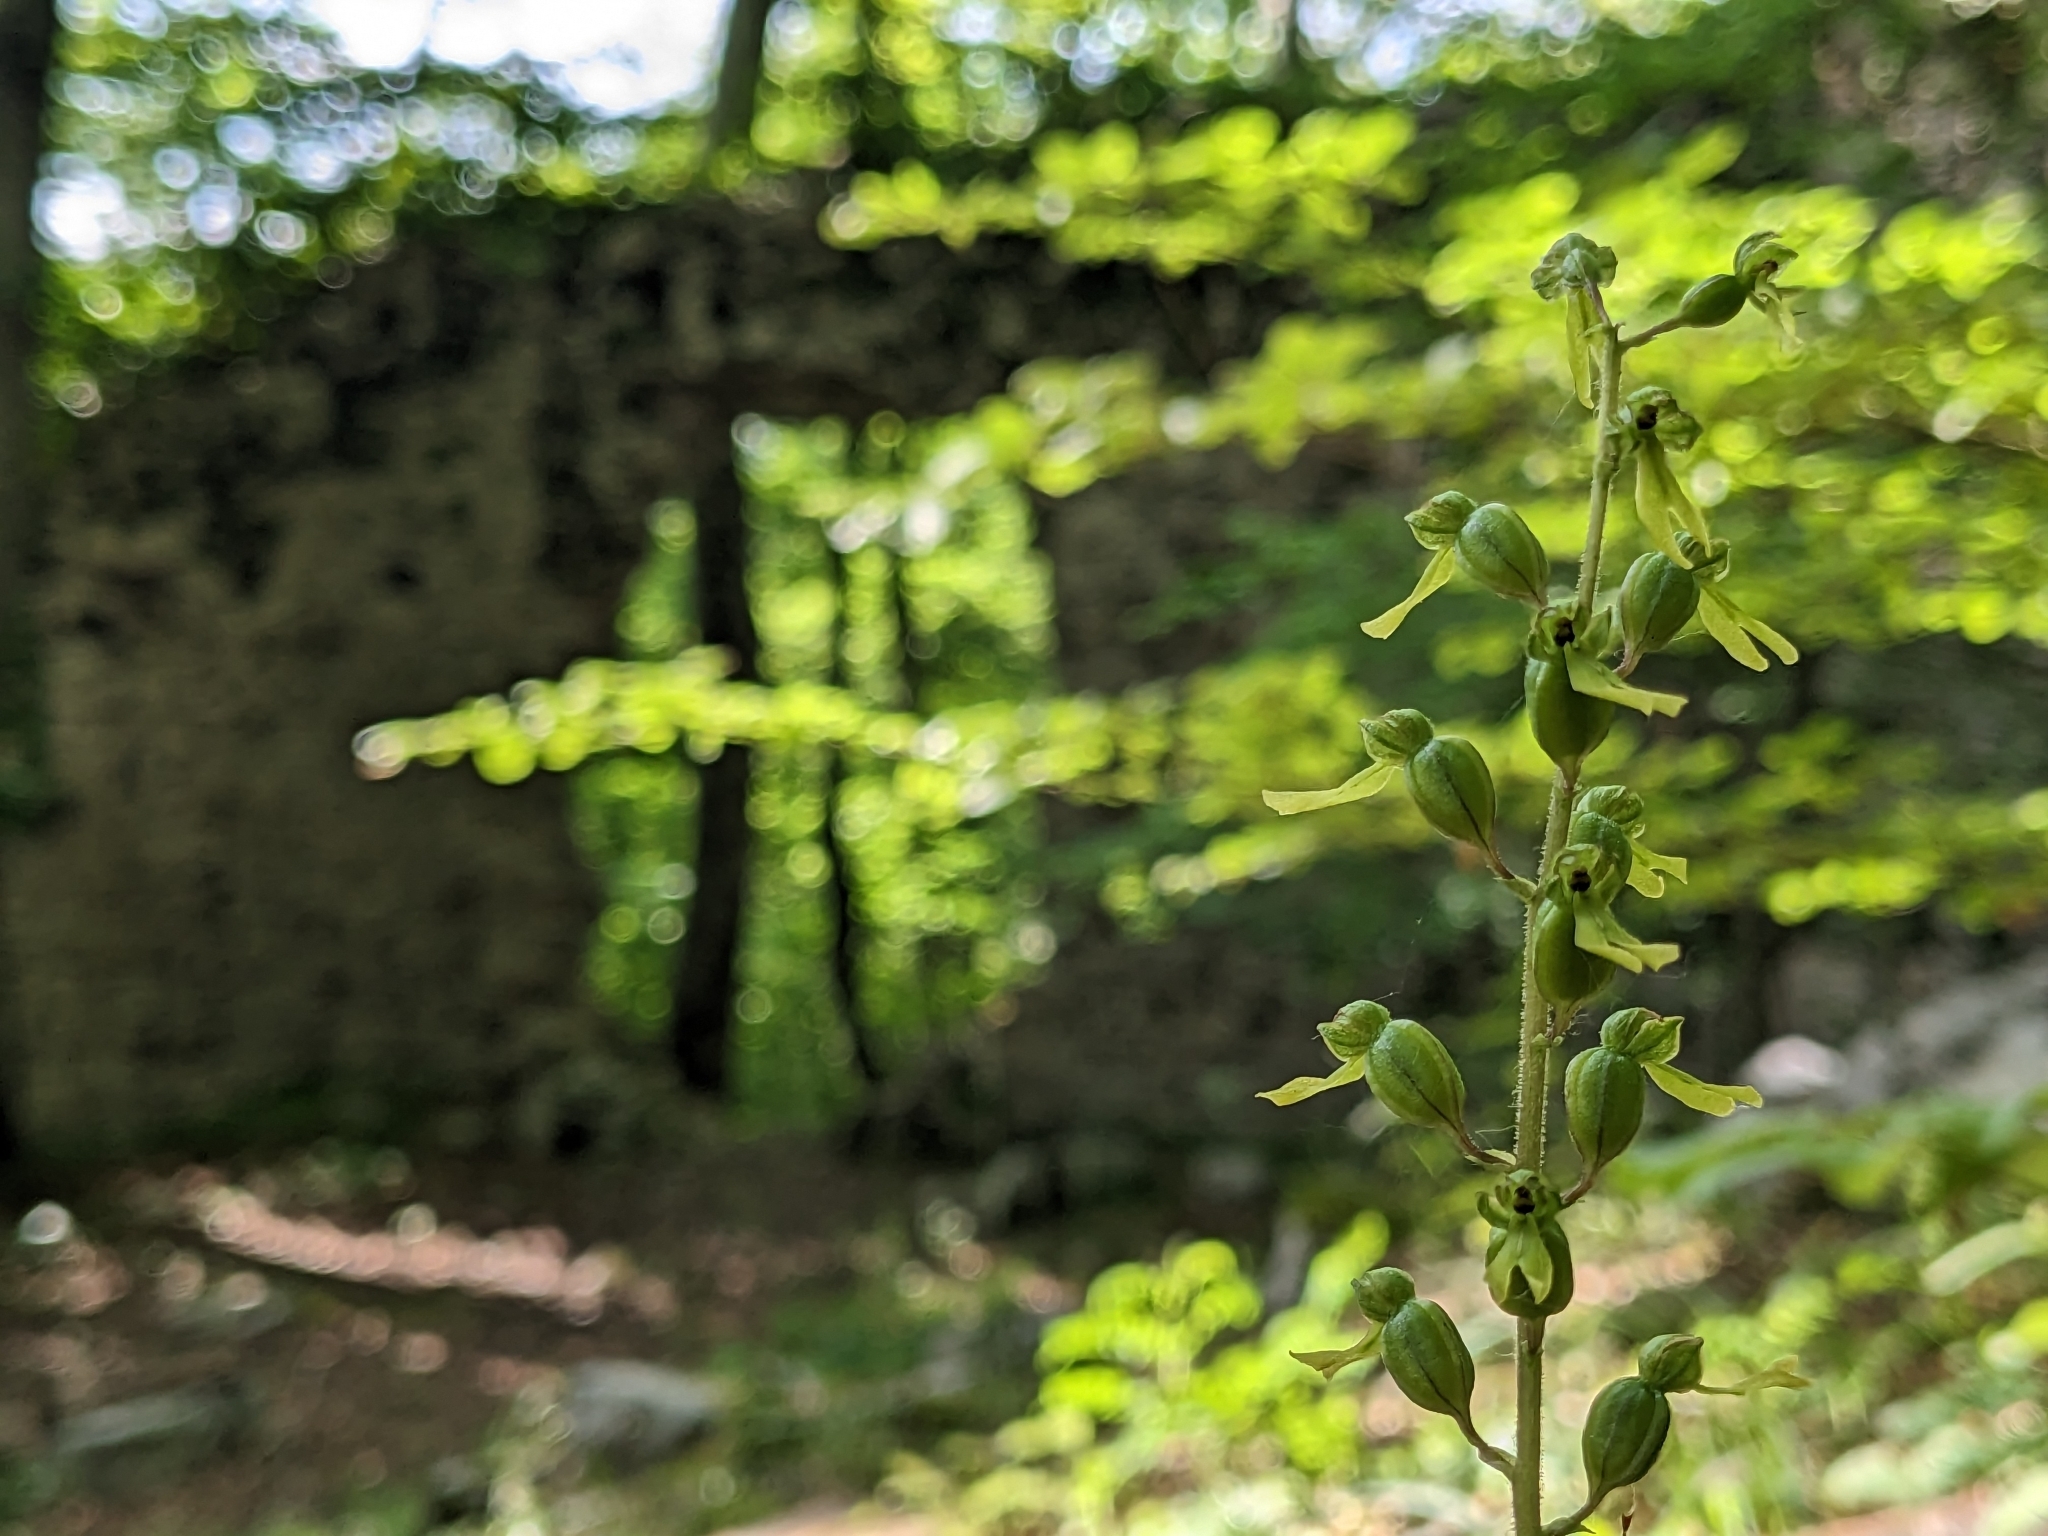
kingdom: Plantae
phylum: Tracheophyta
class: Liliopsida
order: Asparagales
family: Orchidaceae
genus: Neottia
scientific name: Neottia ovata
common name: Common twayblade
